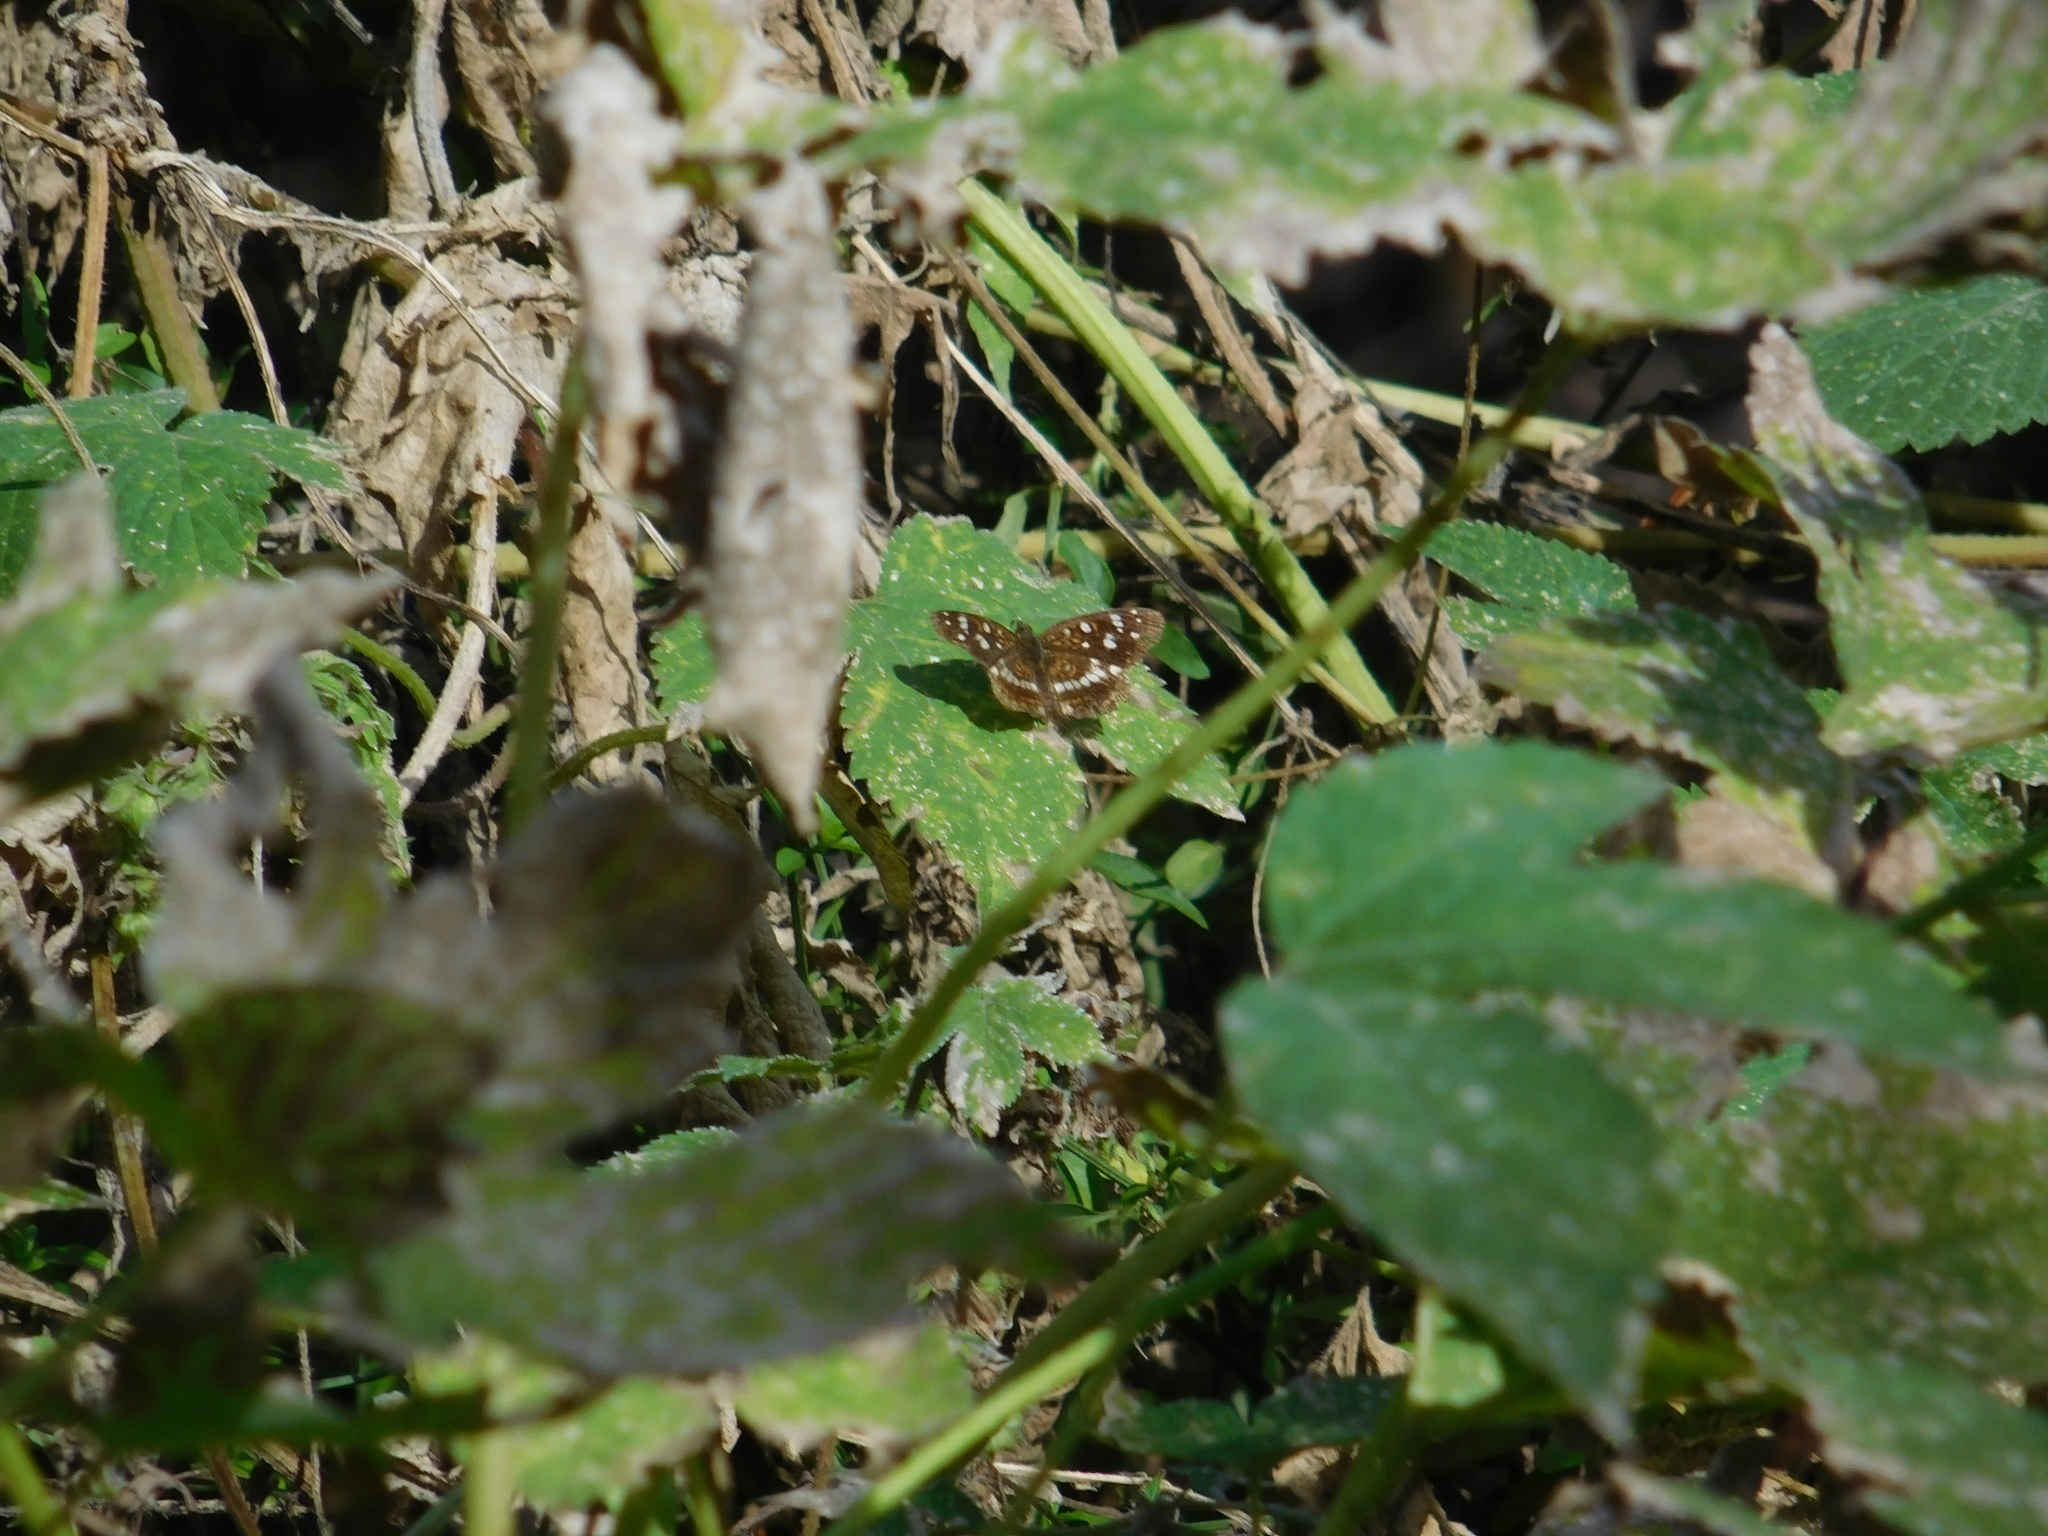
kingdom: Animalia
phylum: Arthropoda
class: Insecta
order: Lepidoptera
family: Nymphalidae
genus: Ortilia
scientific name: Ortilia ithra
